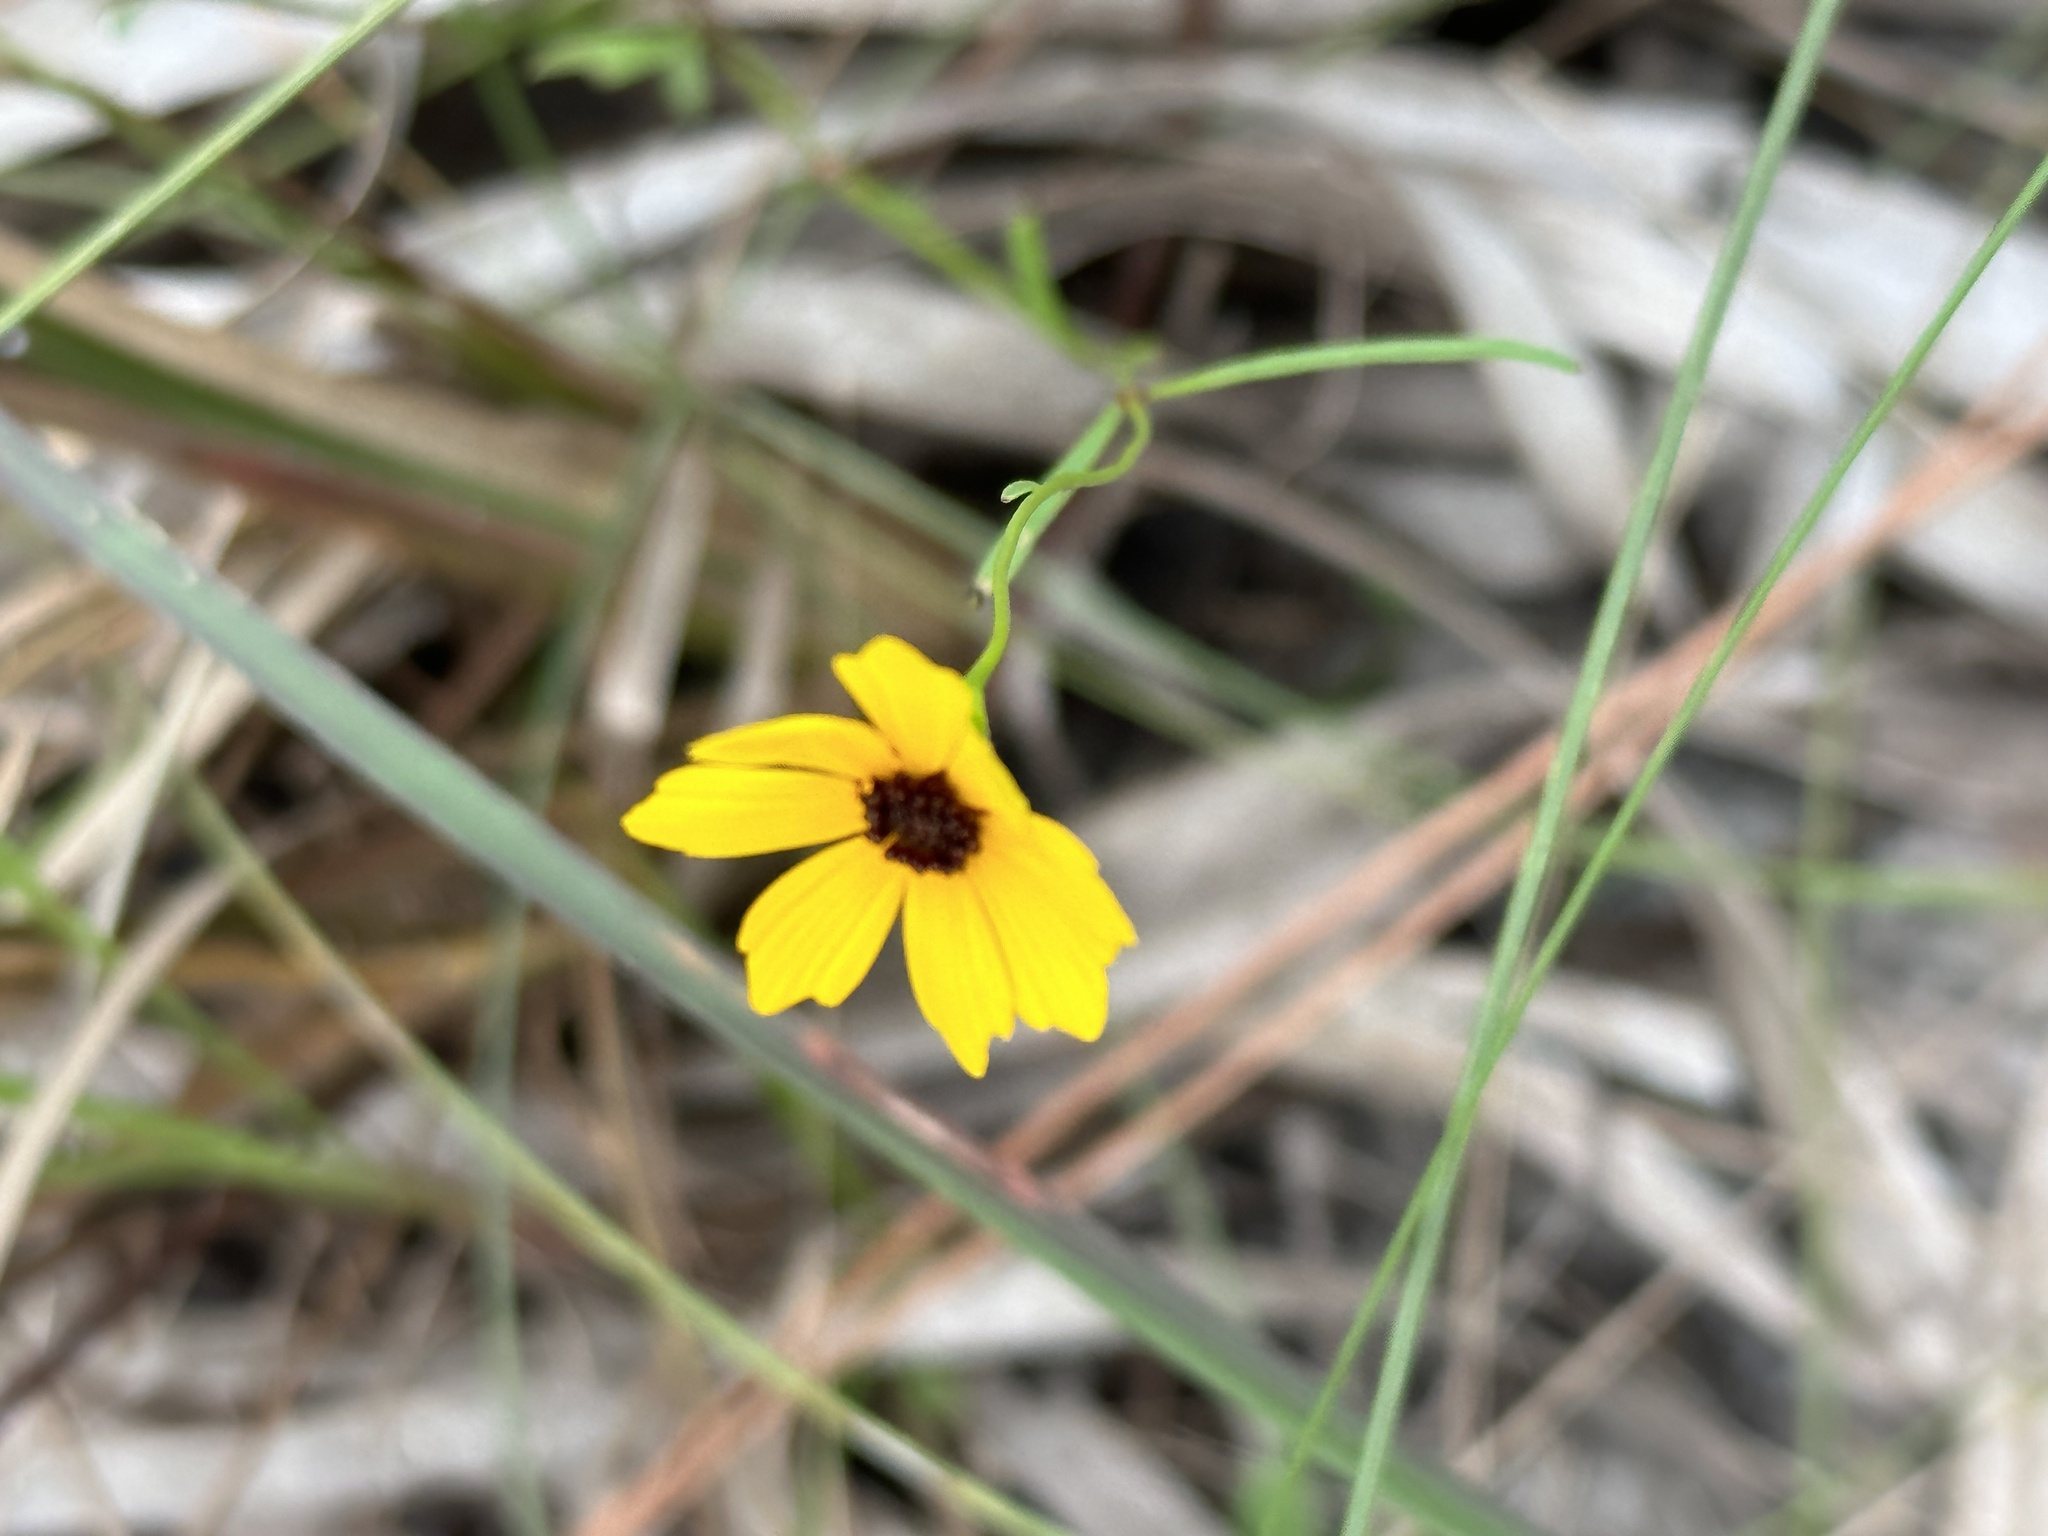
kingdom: Plantae
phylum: Tracheophyta
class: Magnoliopsida
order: Asterales
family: Asteraceae
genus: Coreopsis
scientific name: Coreopsis leavenworthii
